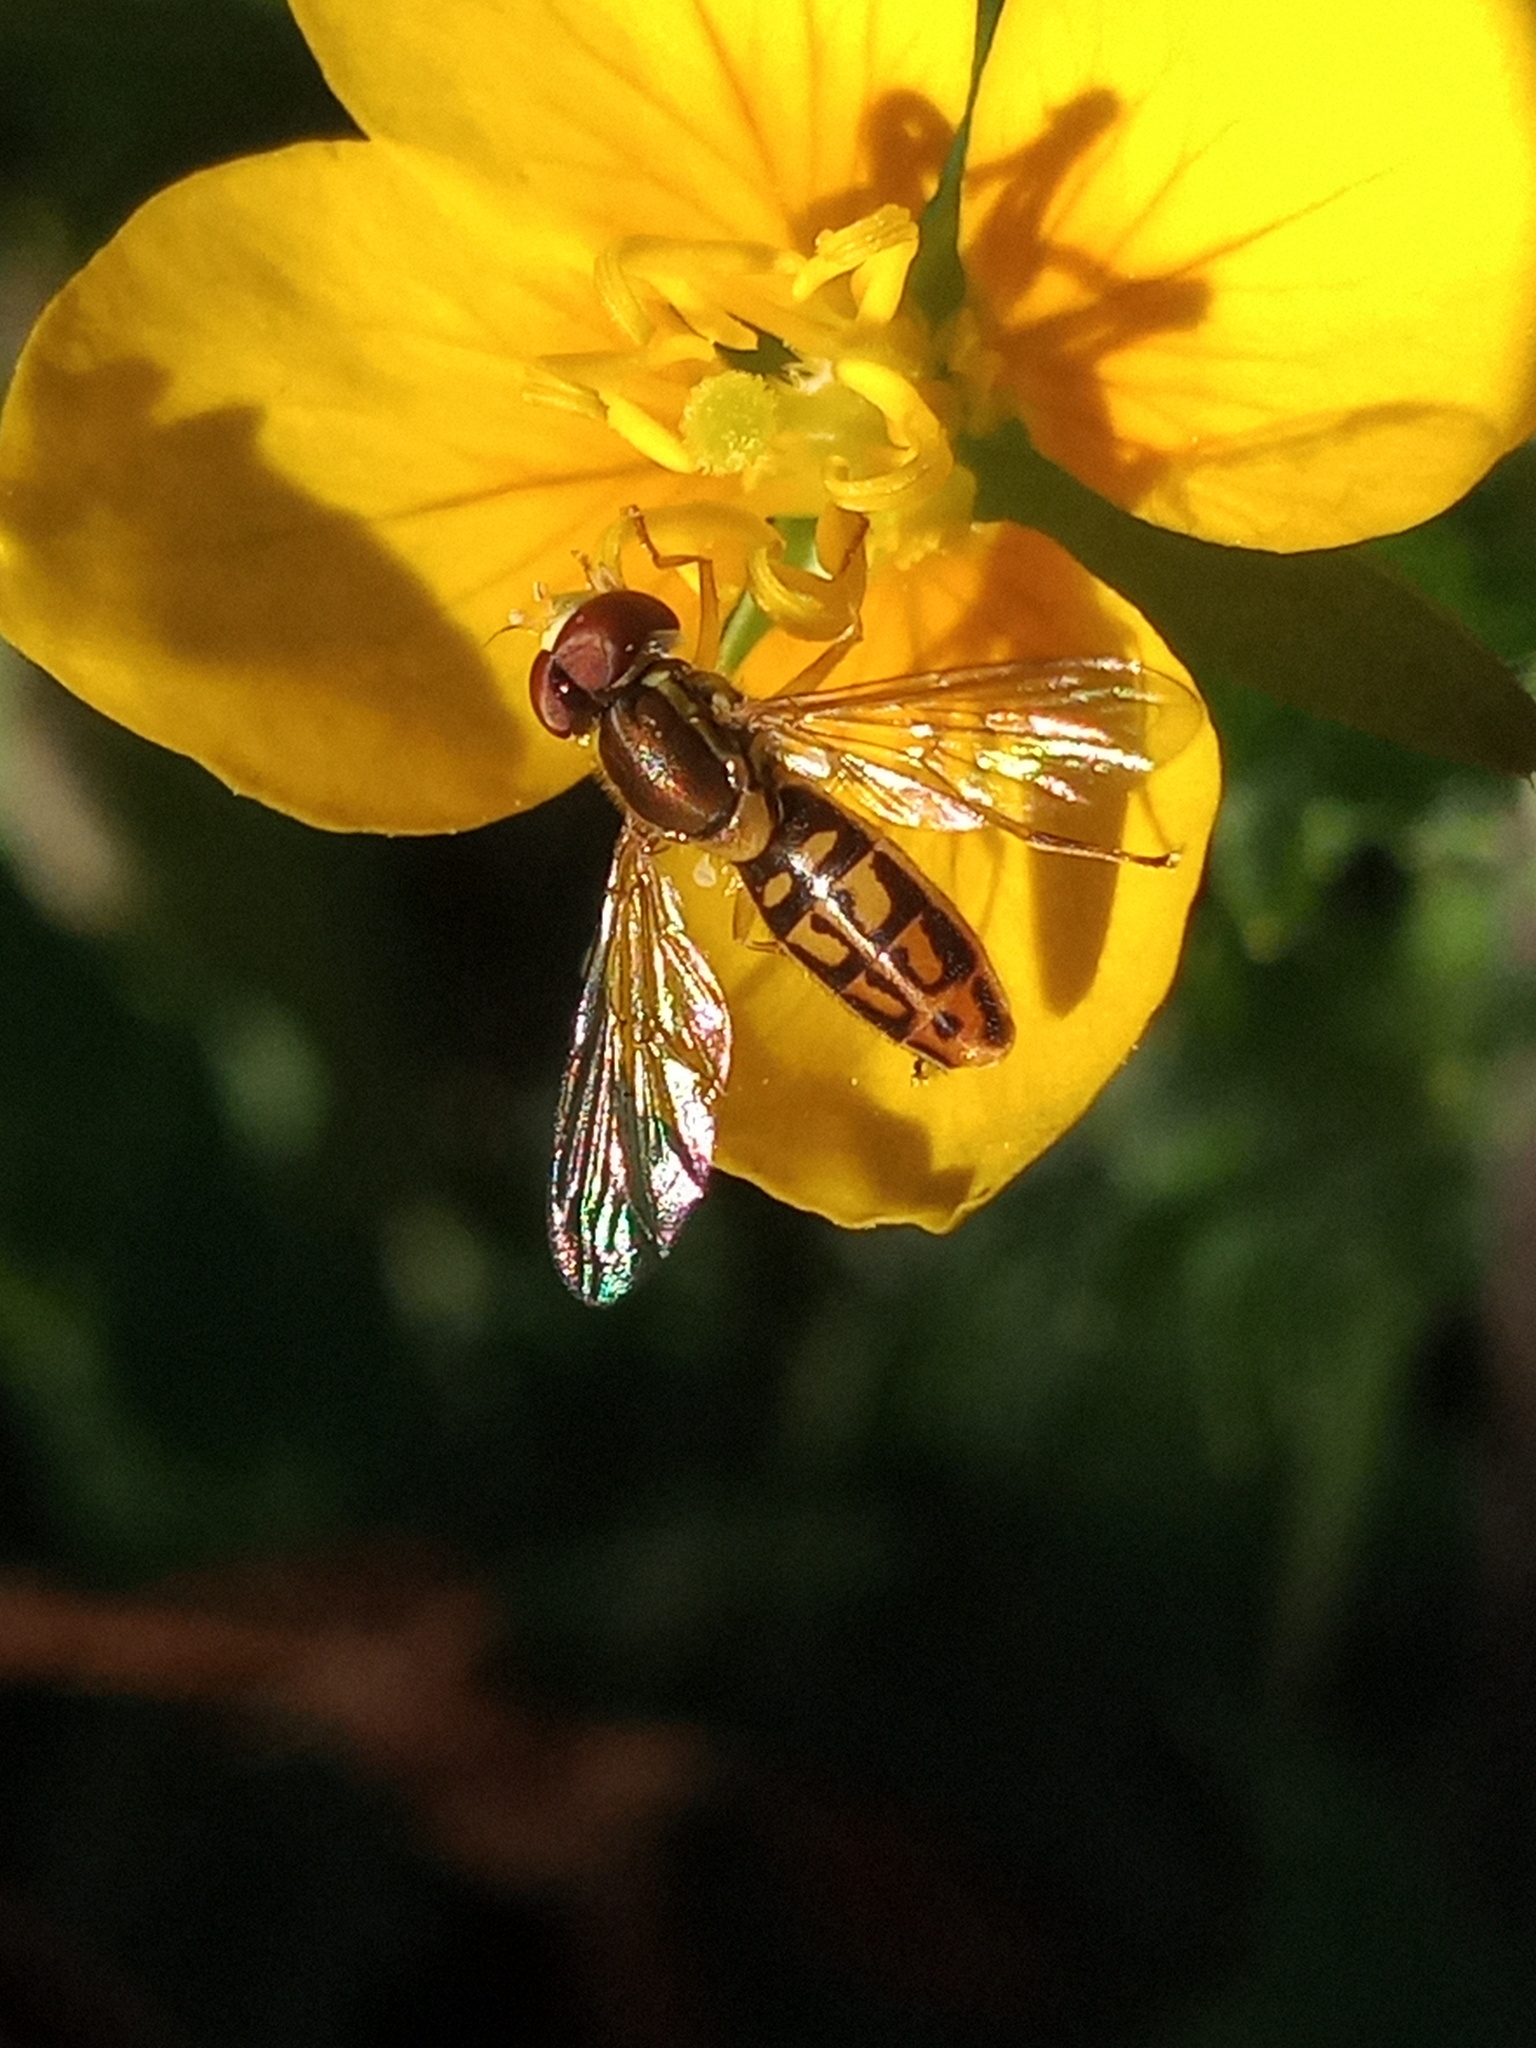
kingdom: Animalia
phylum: Arthropoda
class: Insecta
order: Diptera
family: Syrphidae
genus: Toxomerus
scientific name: Toxomerus marginatus
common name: Syrphid fly
